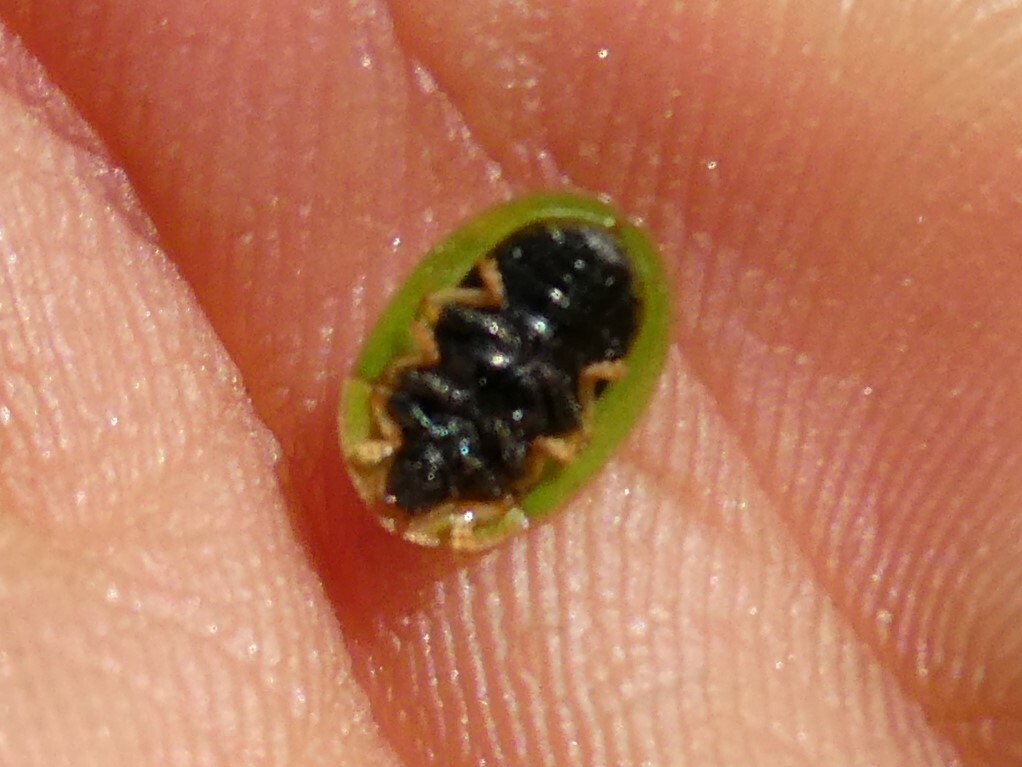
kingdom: Animalia
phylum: Arthropoda
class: Insecta
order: Coleoptera
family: Chrysomelidae
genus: Cassida
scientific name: Cassida rubiginosa
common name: Thistle tortoise beetle
